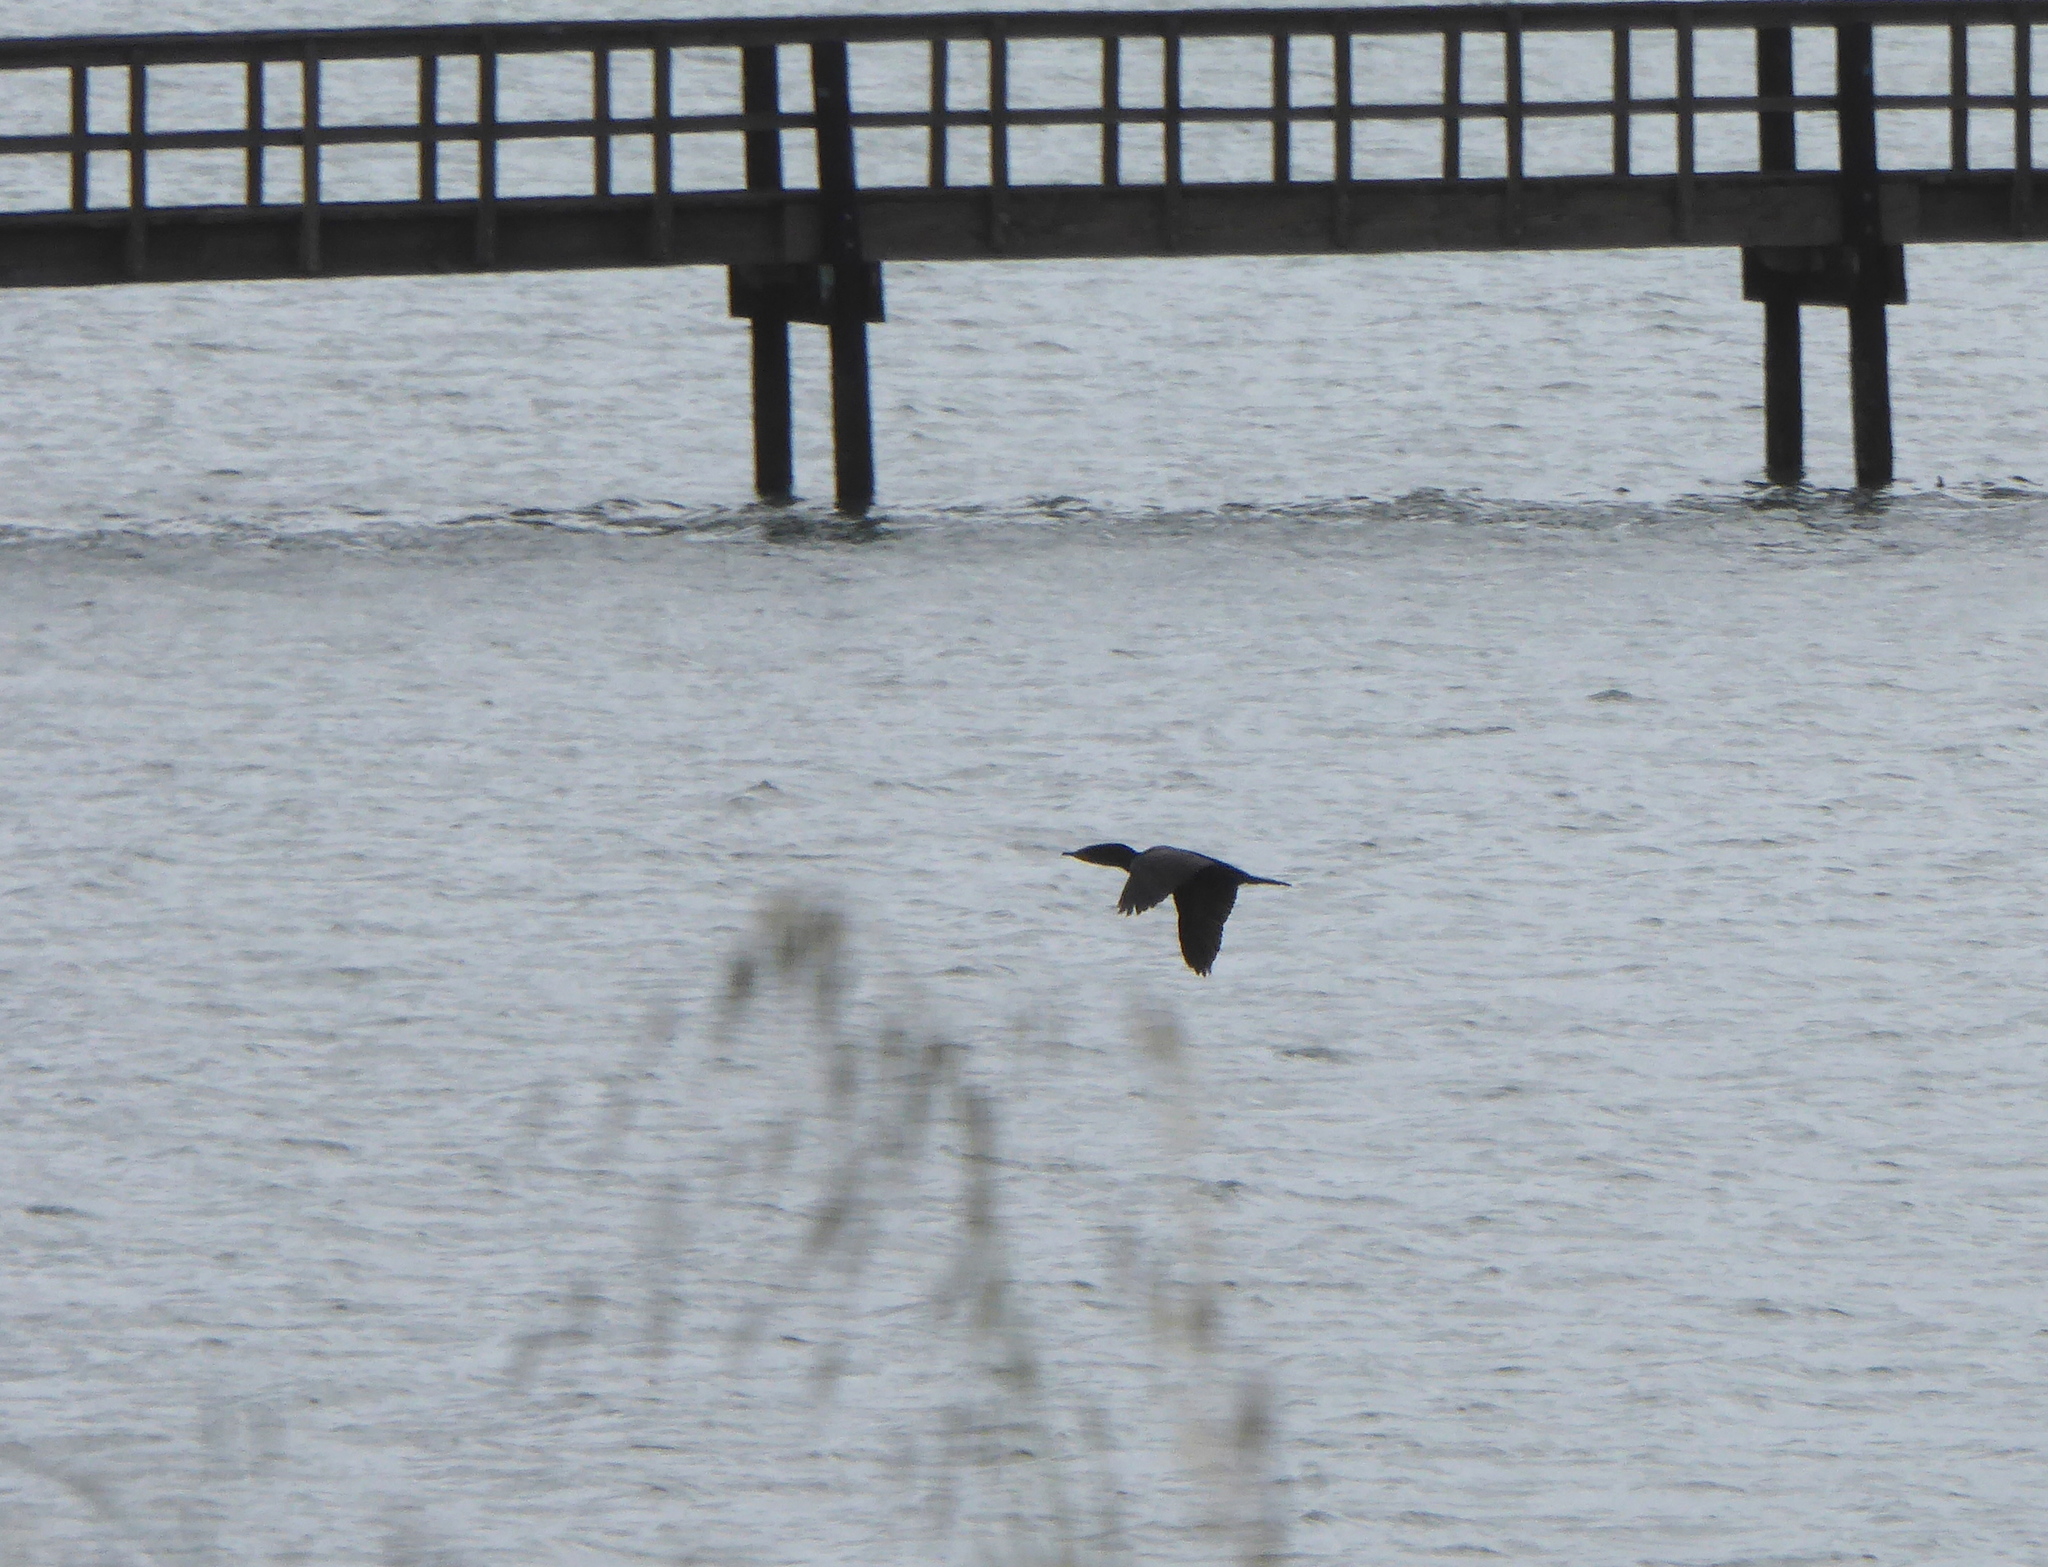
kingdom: Animalia
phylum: Chordata
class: Aves
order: Suliformes
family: Phalacrocoracidae
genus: Phalacrocorax
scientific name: Phalacrocorax auritus
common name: Double-crested cormorant
